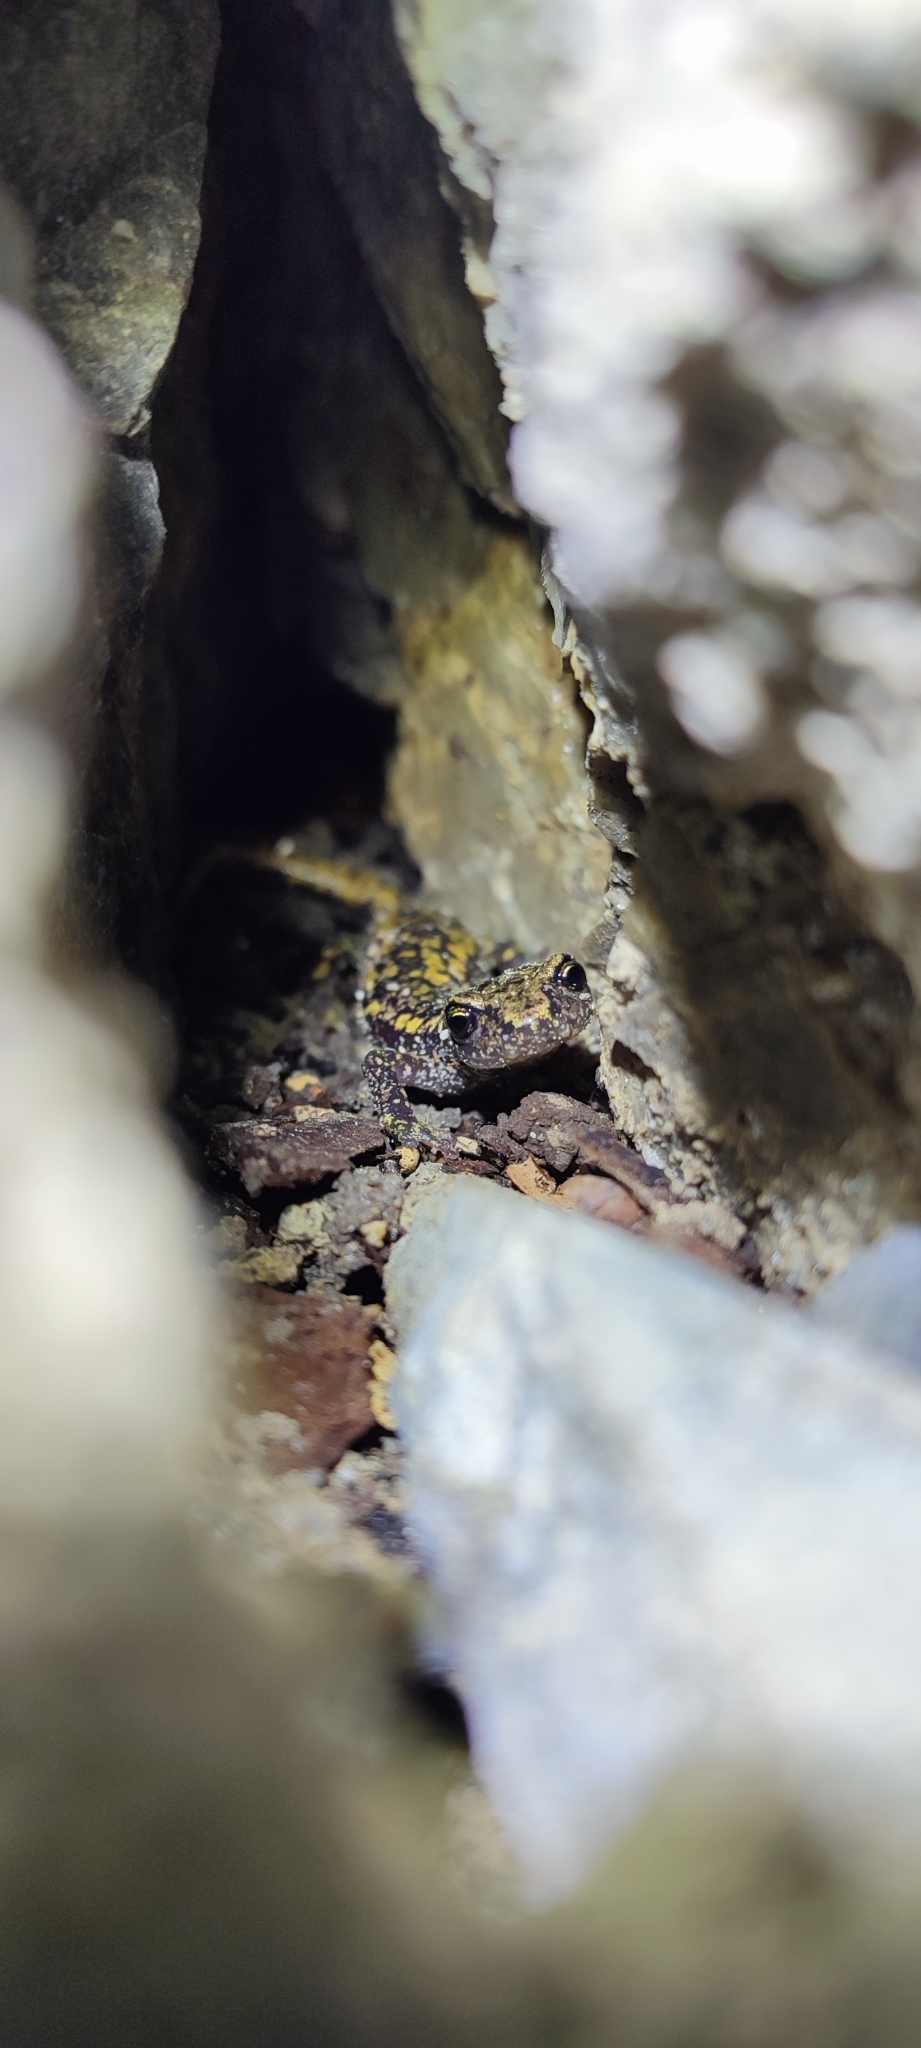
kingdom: Animalia
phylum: Chordata
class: Amphibia
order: Caudata
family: Plethodontidae
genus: Speleomantes
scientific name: Speleomantes strinatii
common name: French cave salamander
